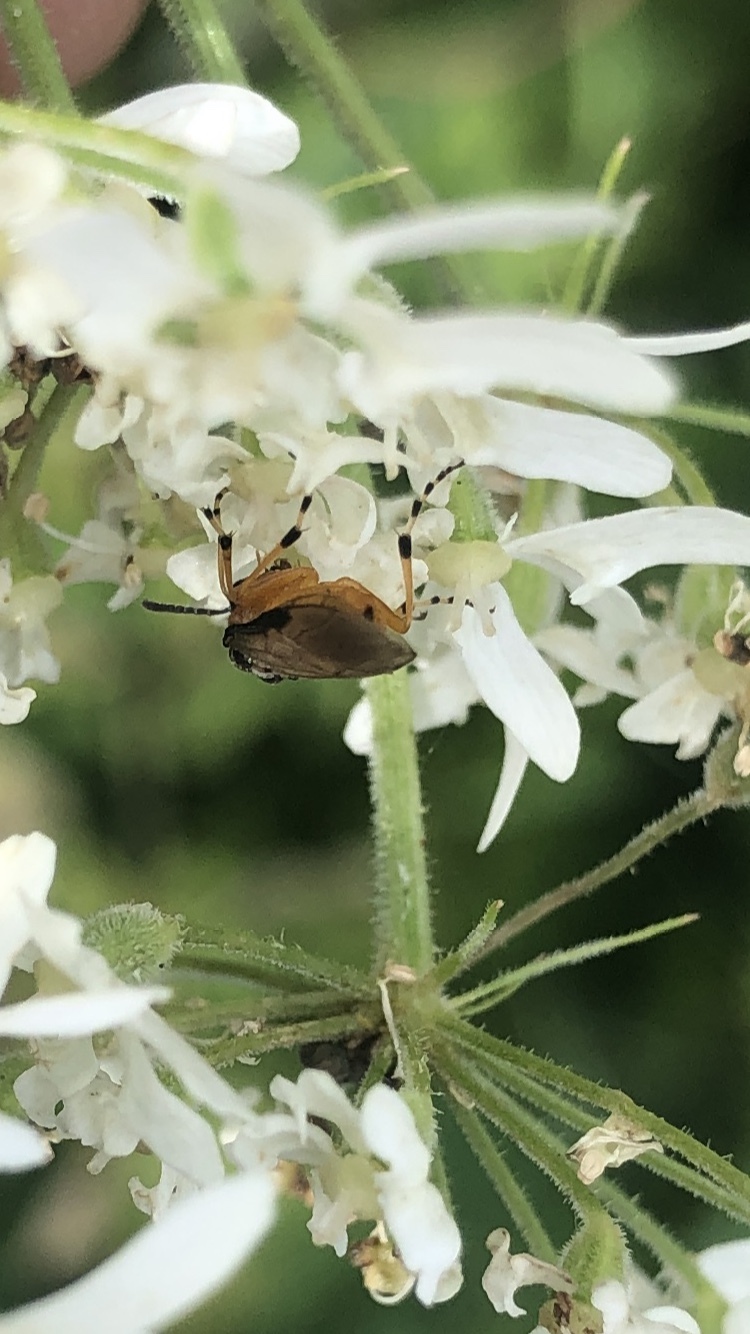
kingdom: Animalia
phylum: Arthropoda
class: Insecta
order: Hymenoptera
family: Tenthredinidae
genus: Athalia
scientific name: Athalia rosae
